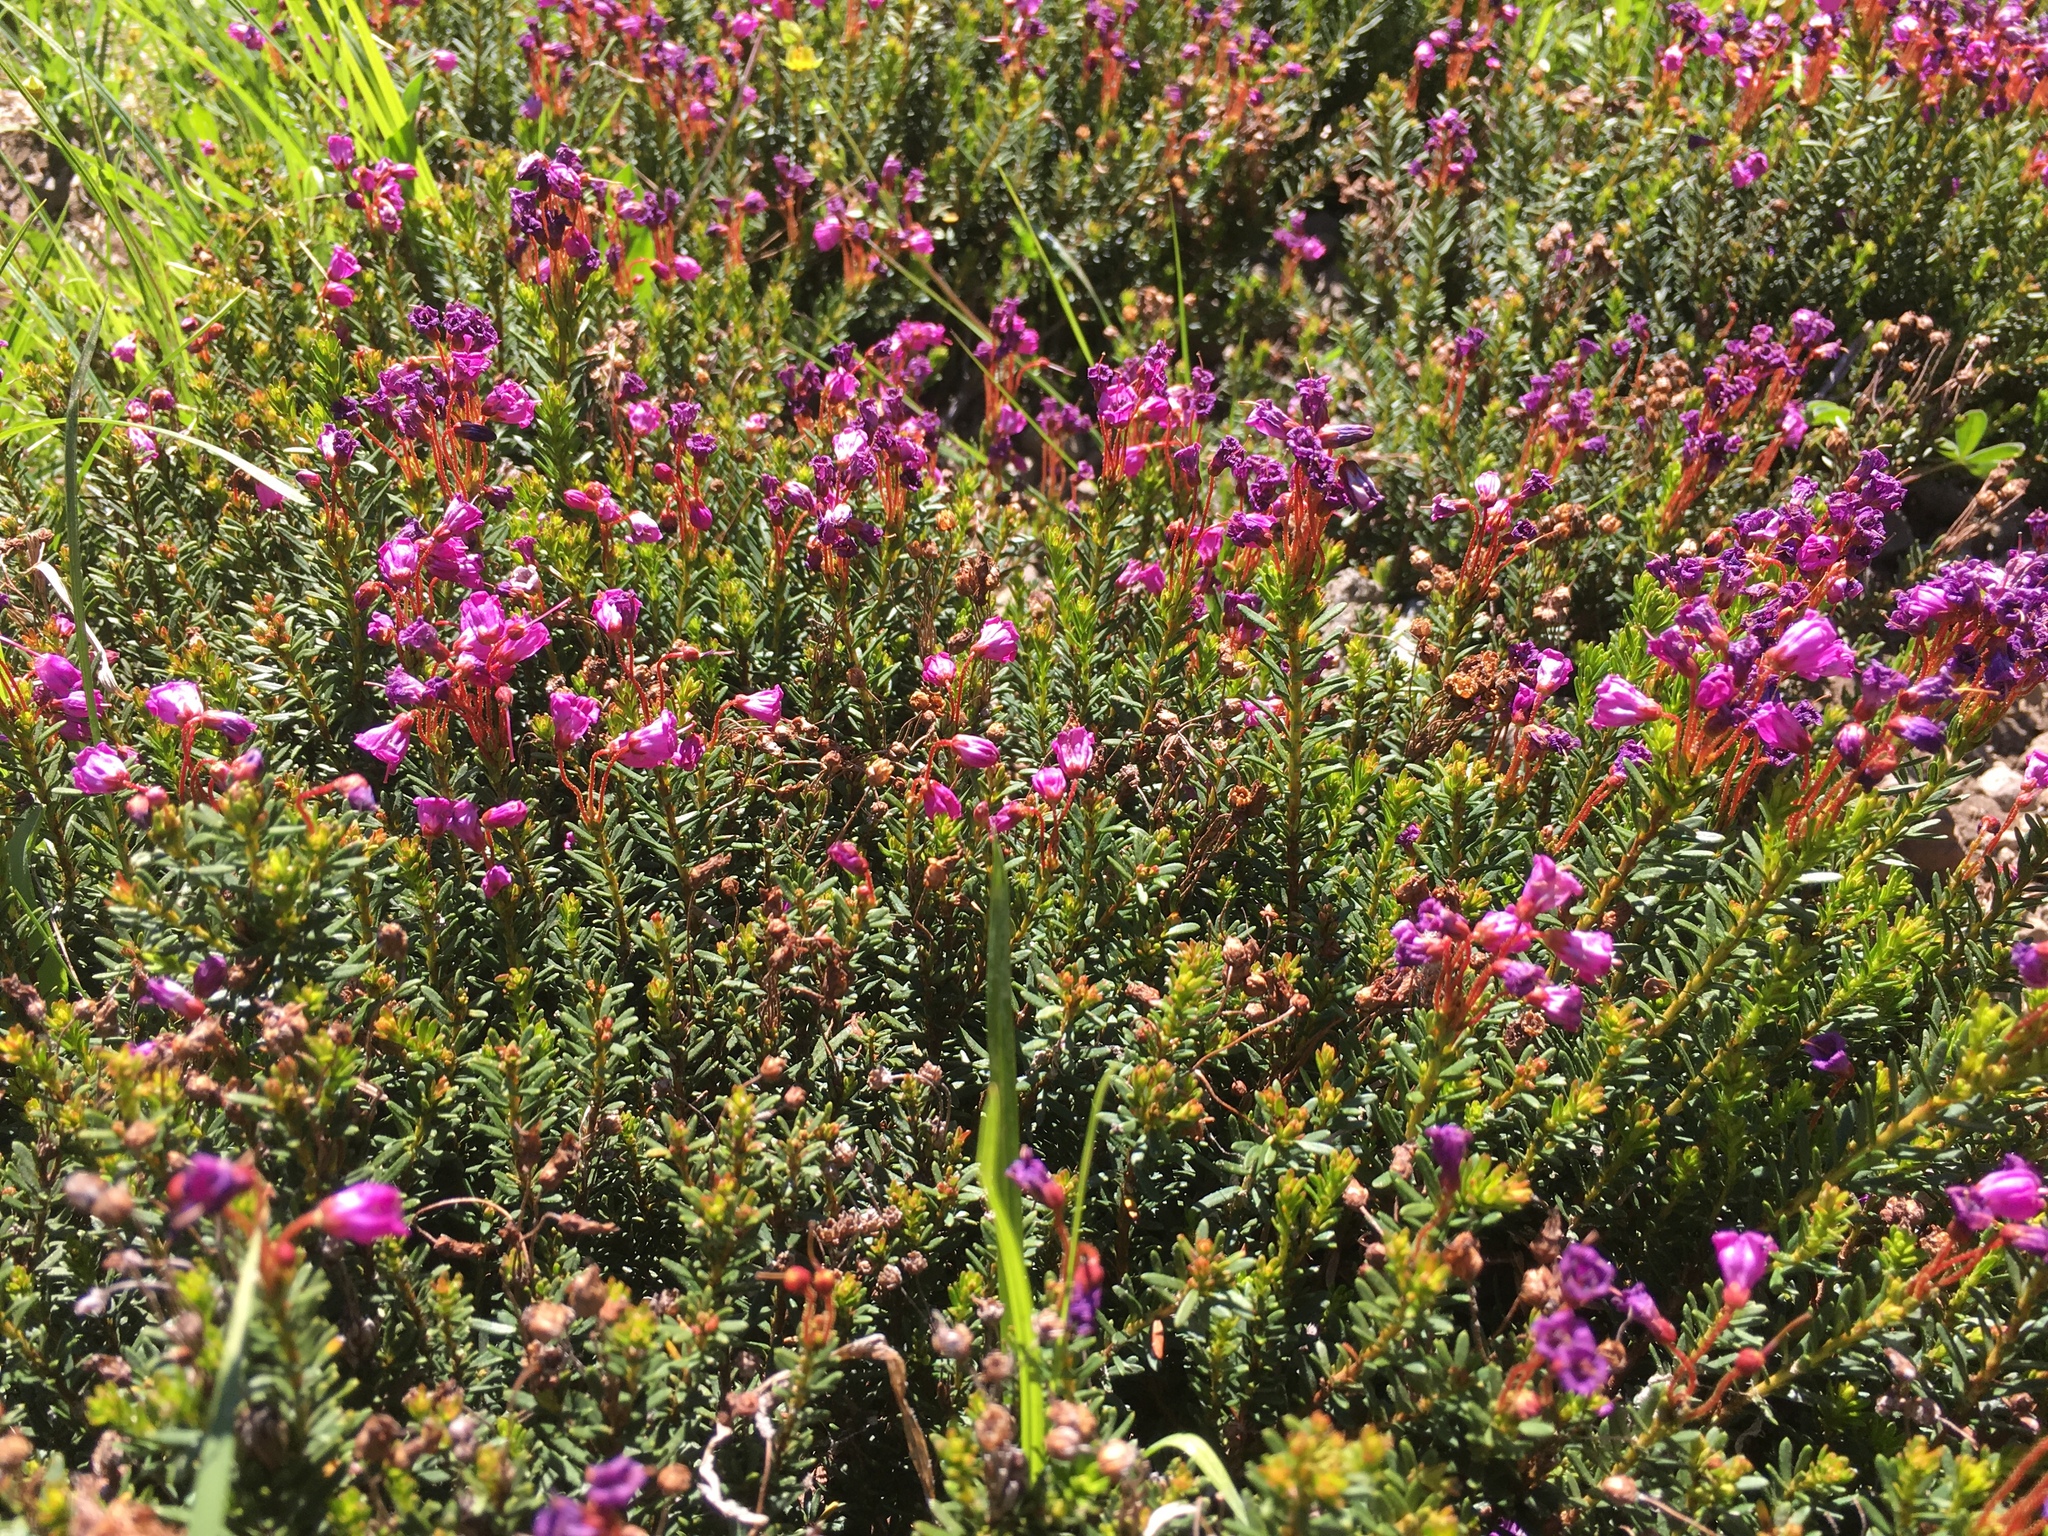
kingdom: Plantae
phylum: Tracheophyta
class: Magnoliopsida
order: Ericales
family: Ericaceae
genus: Phyllodoce
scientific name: Phyllodoce empetriformis
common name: Pink mountain heather
